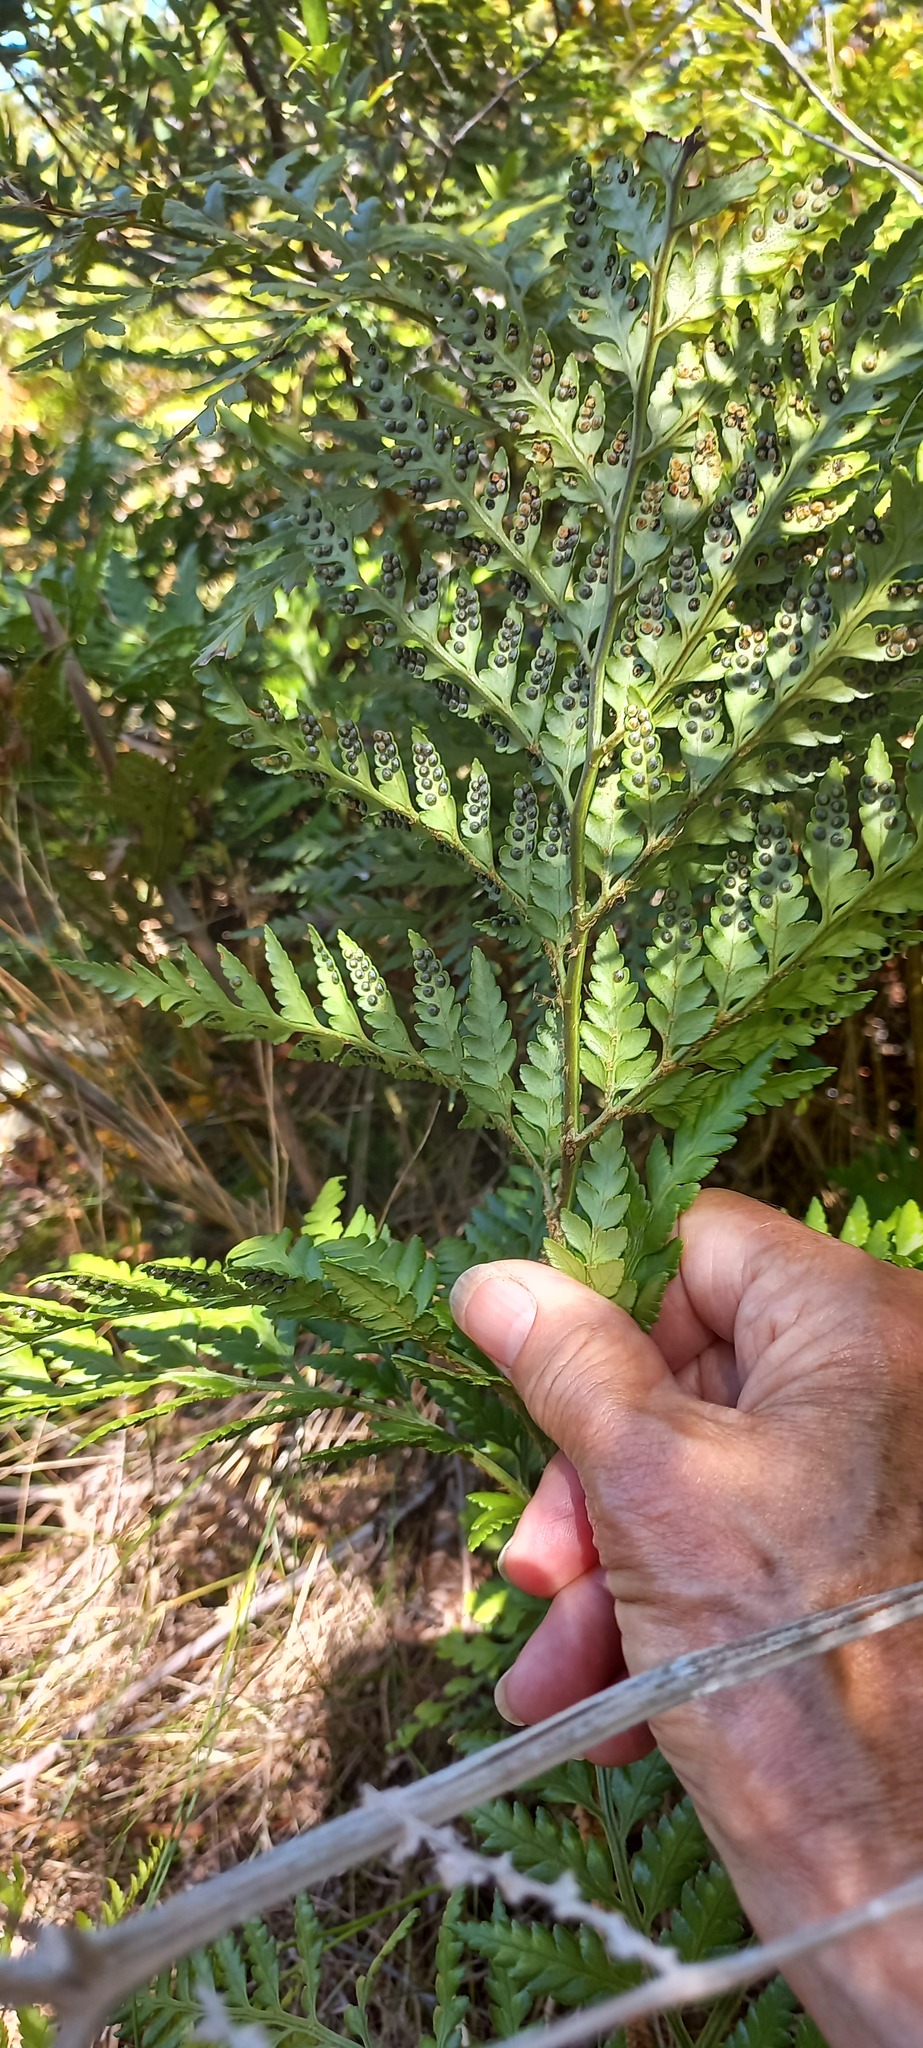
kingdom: Plantae
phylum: Tracheophyta
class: Polypodiopsida
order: Polypodiales
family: Dryopteridaceae
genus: Rumohra
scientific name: Rumohra adiantiformis
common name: Leather fern
